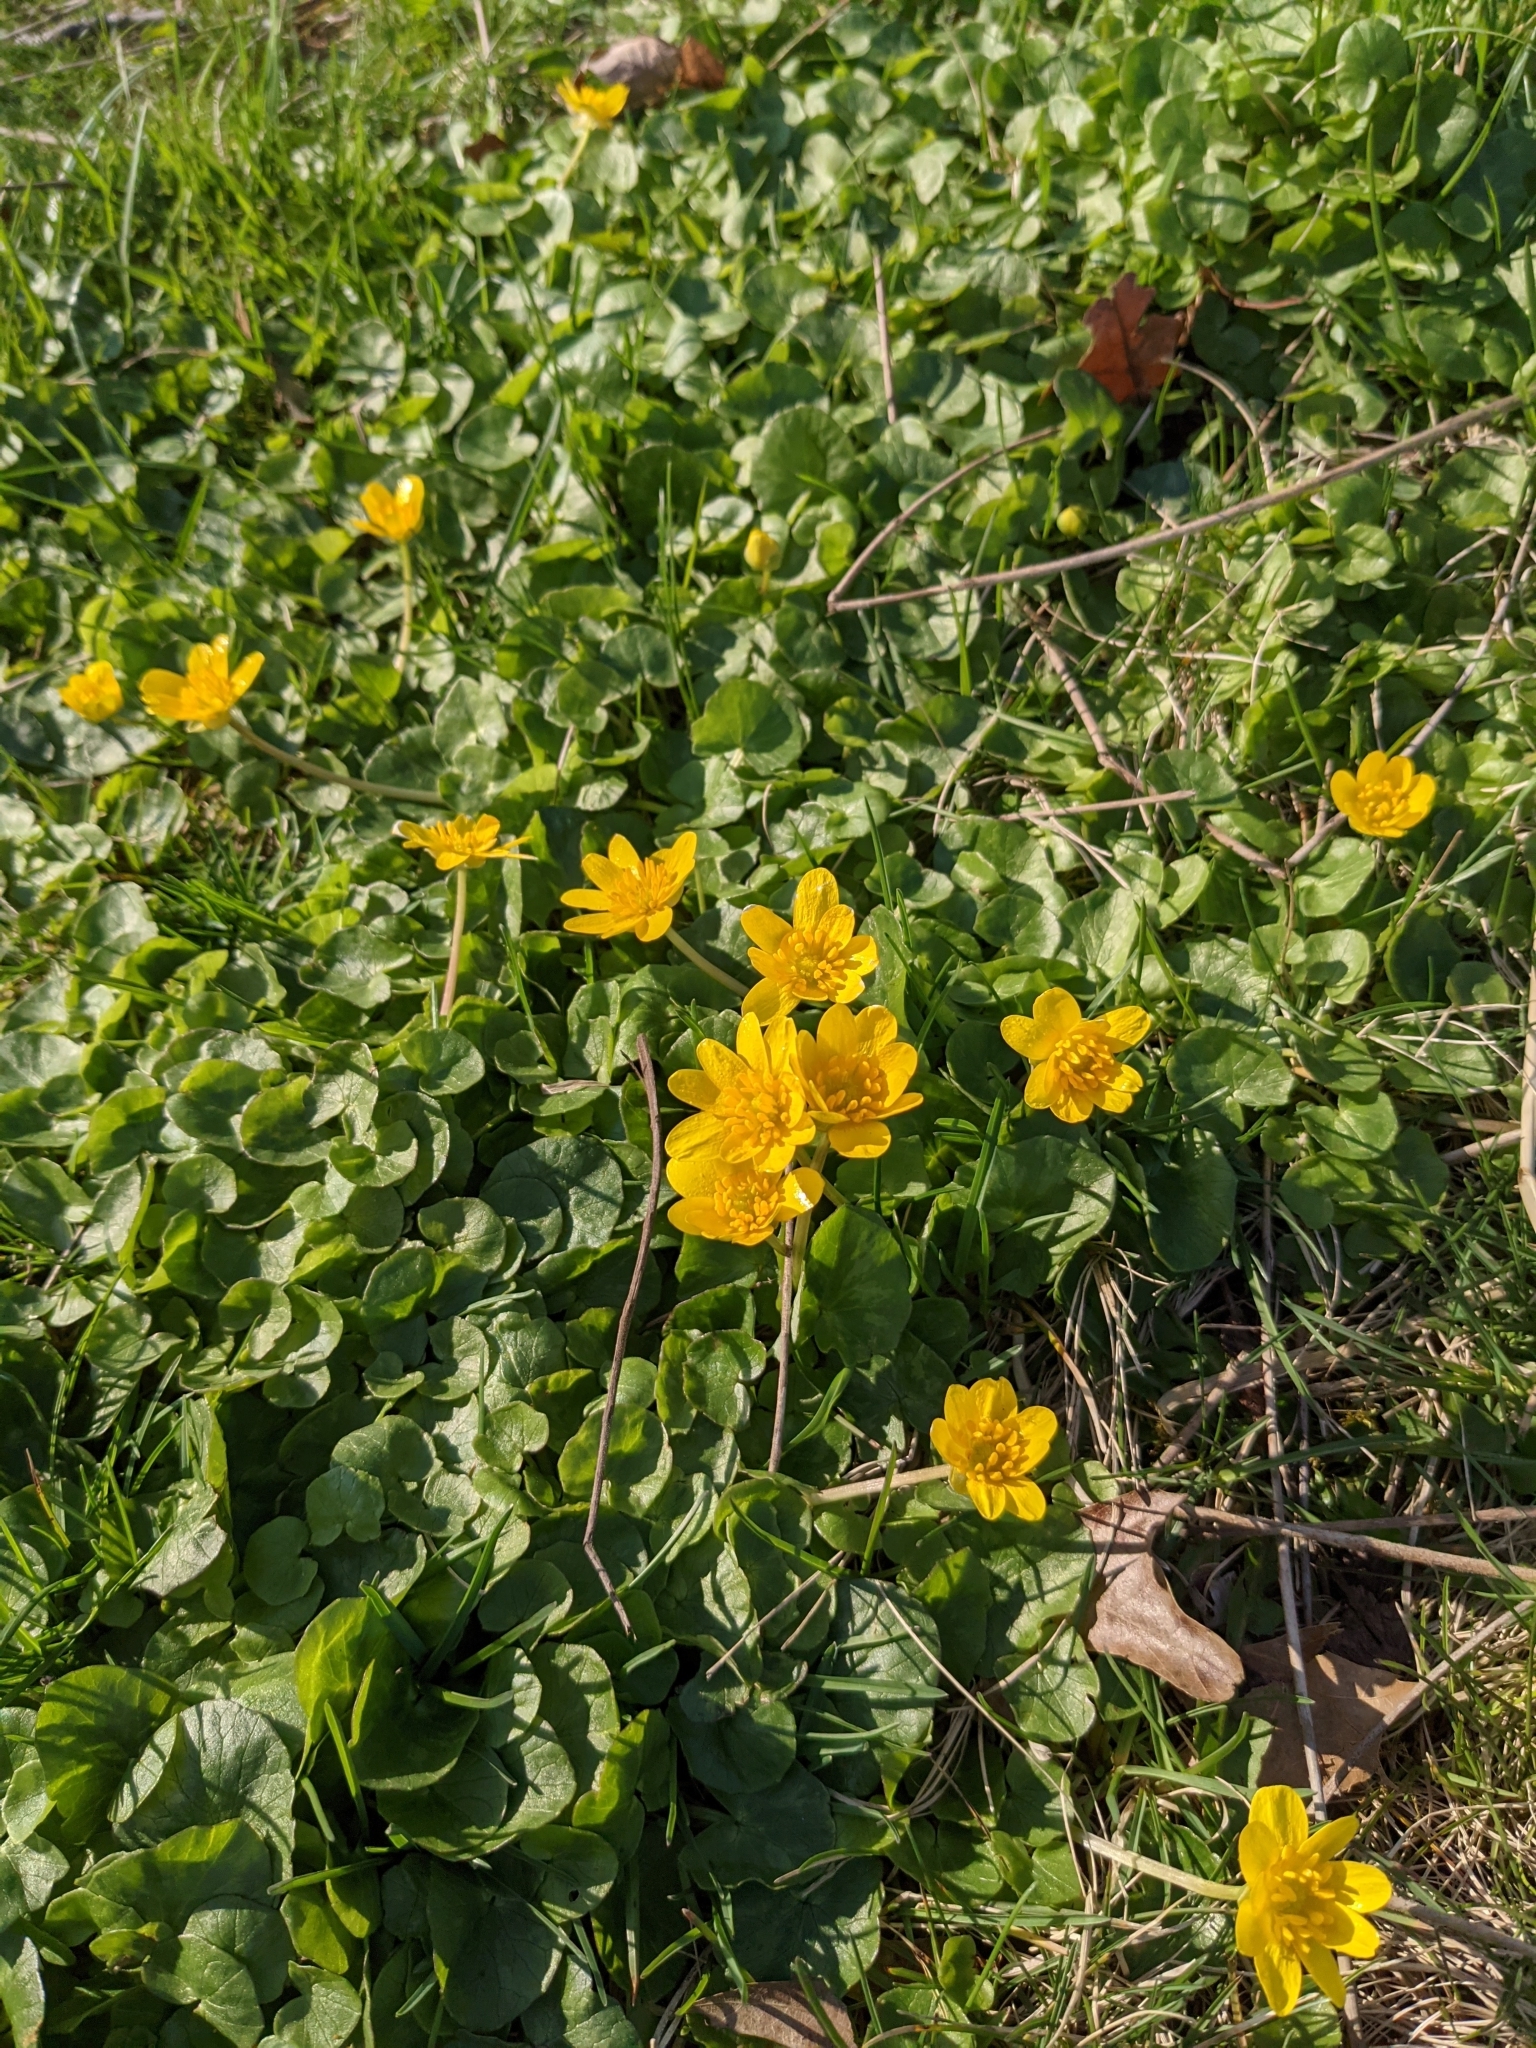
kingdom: Plantae
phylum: Tracheophyta
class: Magnoliopsida
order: Ranunculales
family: Ranunculaceae
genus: Ficaria
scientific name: Ficaria verna
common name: Lesser celandine
